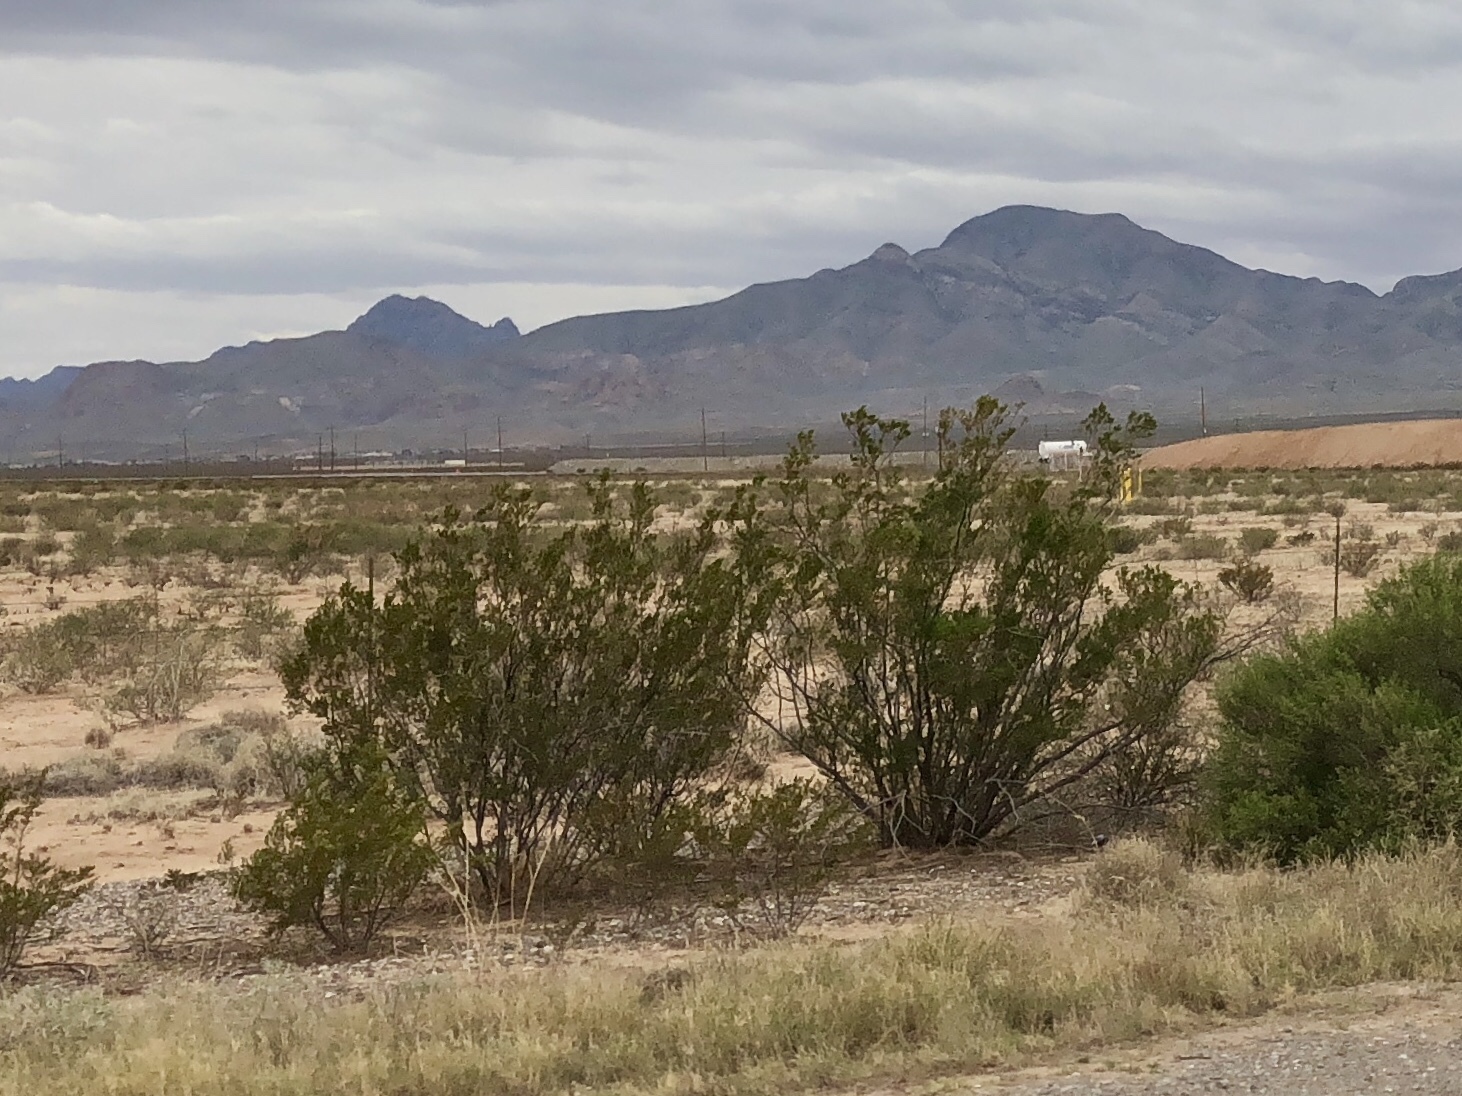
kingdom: Plantae
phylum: Tracheophyta
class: Magnoliopsida
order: Zygophyllales
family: Zygophyllaceae
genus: Larrea
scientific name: Larrea tridentata
